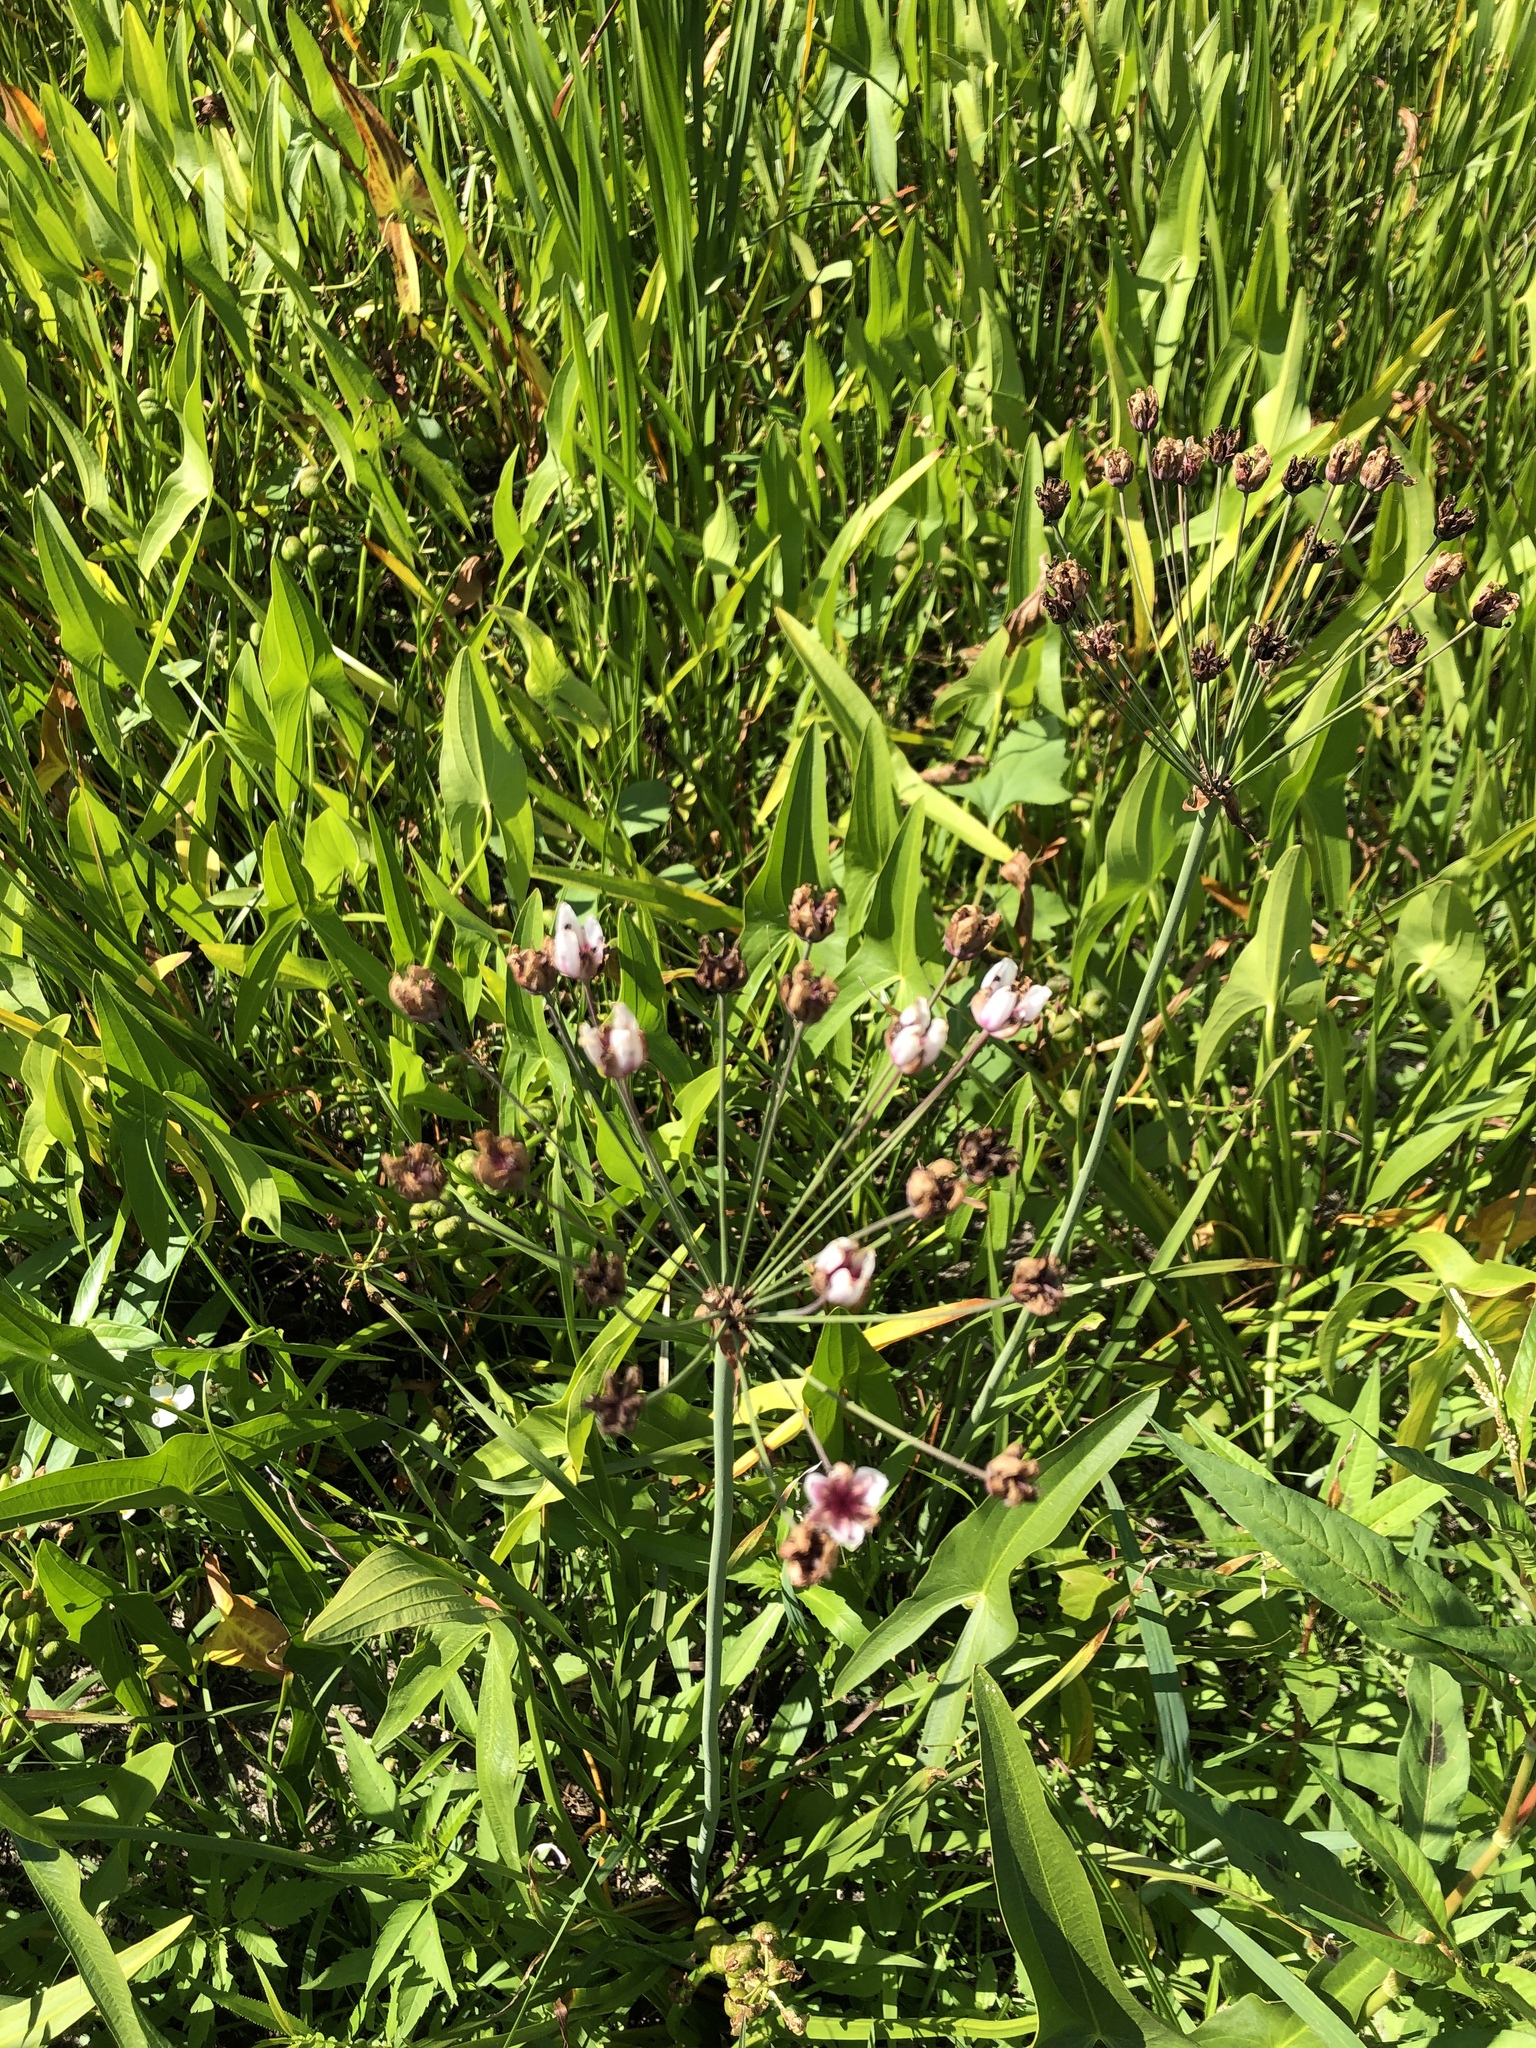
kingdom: Plantae
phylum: Tracheophyta
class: Liliopsida
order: Alismatales
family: Butomaceae
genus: Butomus
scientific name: Butomus umbellatus
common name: Flowering-rush
